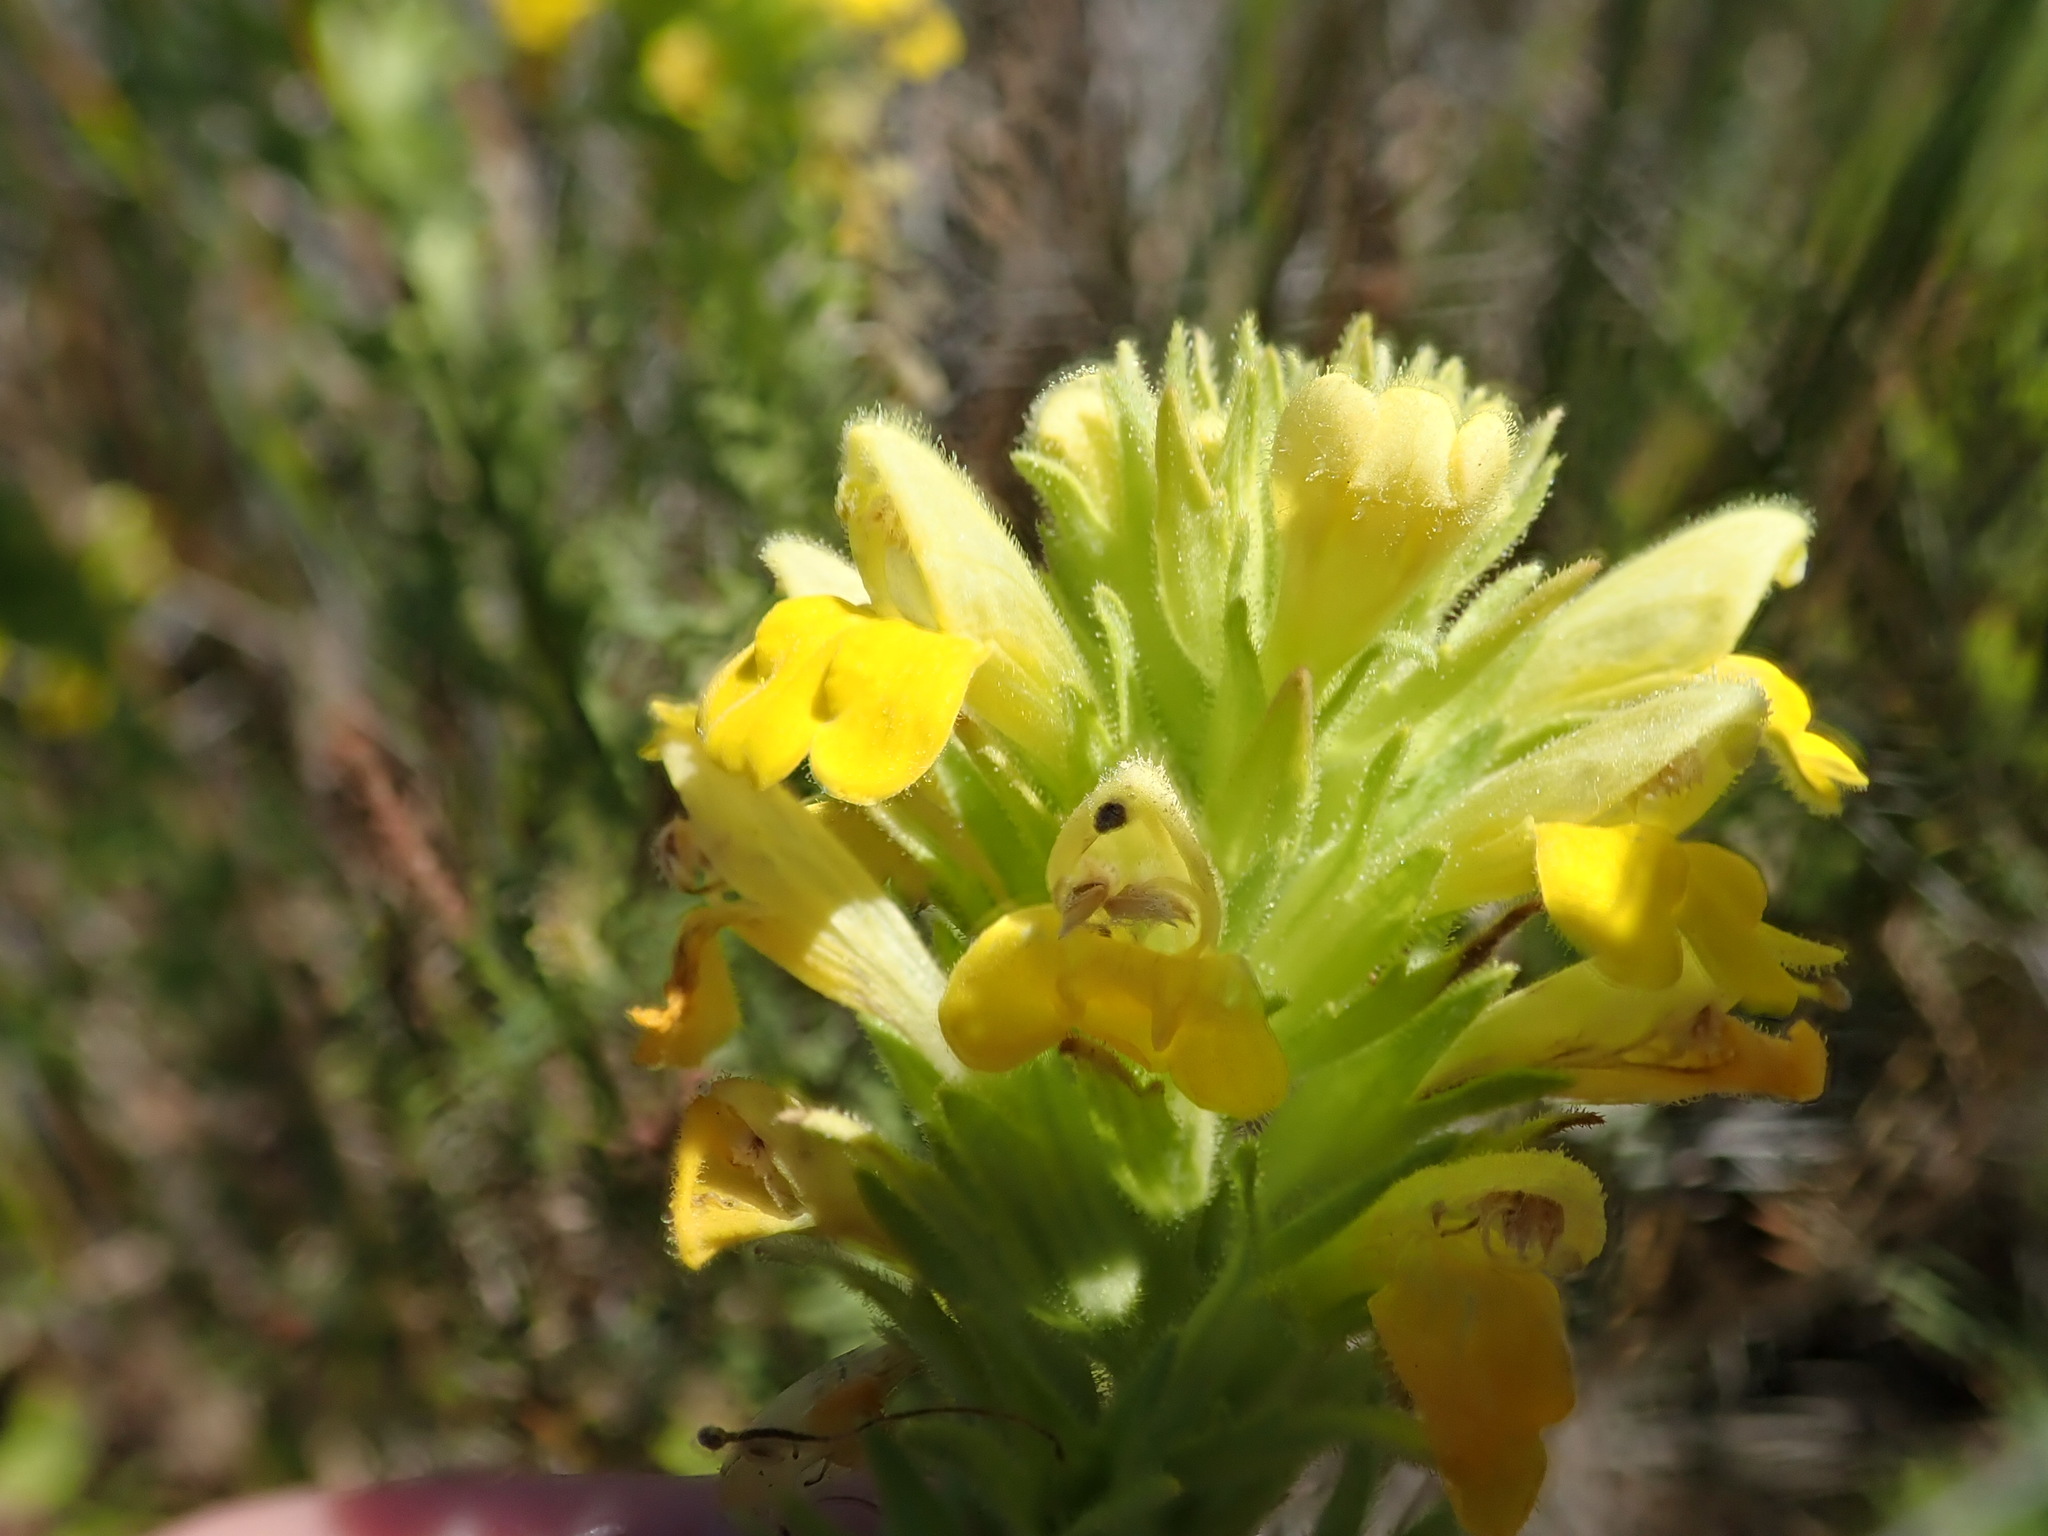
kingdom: Plantae
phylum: Tracheophyta
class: Magnoliopsida
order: Lamiales
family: Orobanchaceae
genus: Bellardia
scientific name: Bellardia viscosa
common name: Sticky parentucellia
